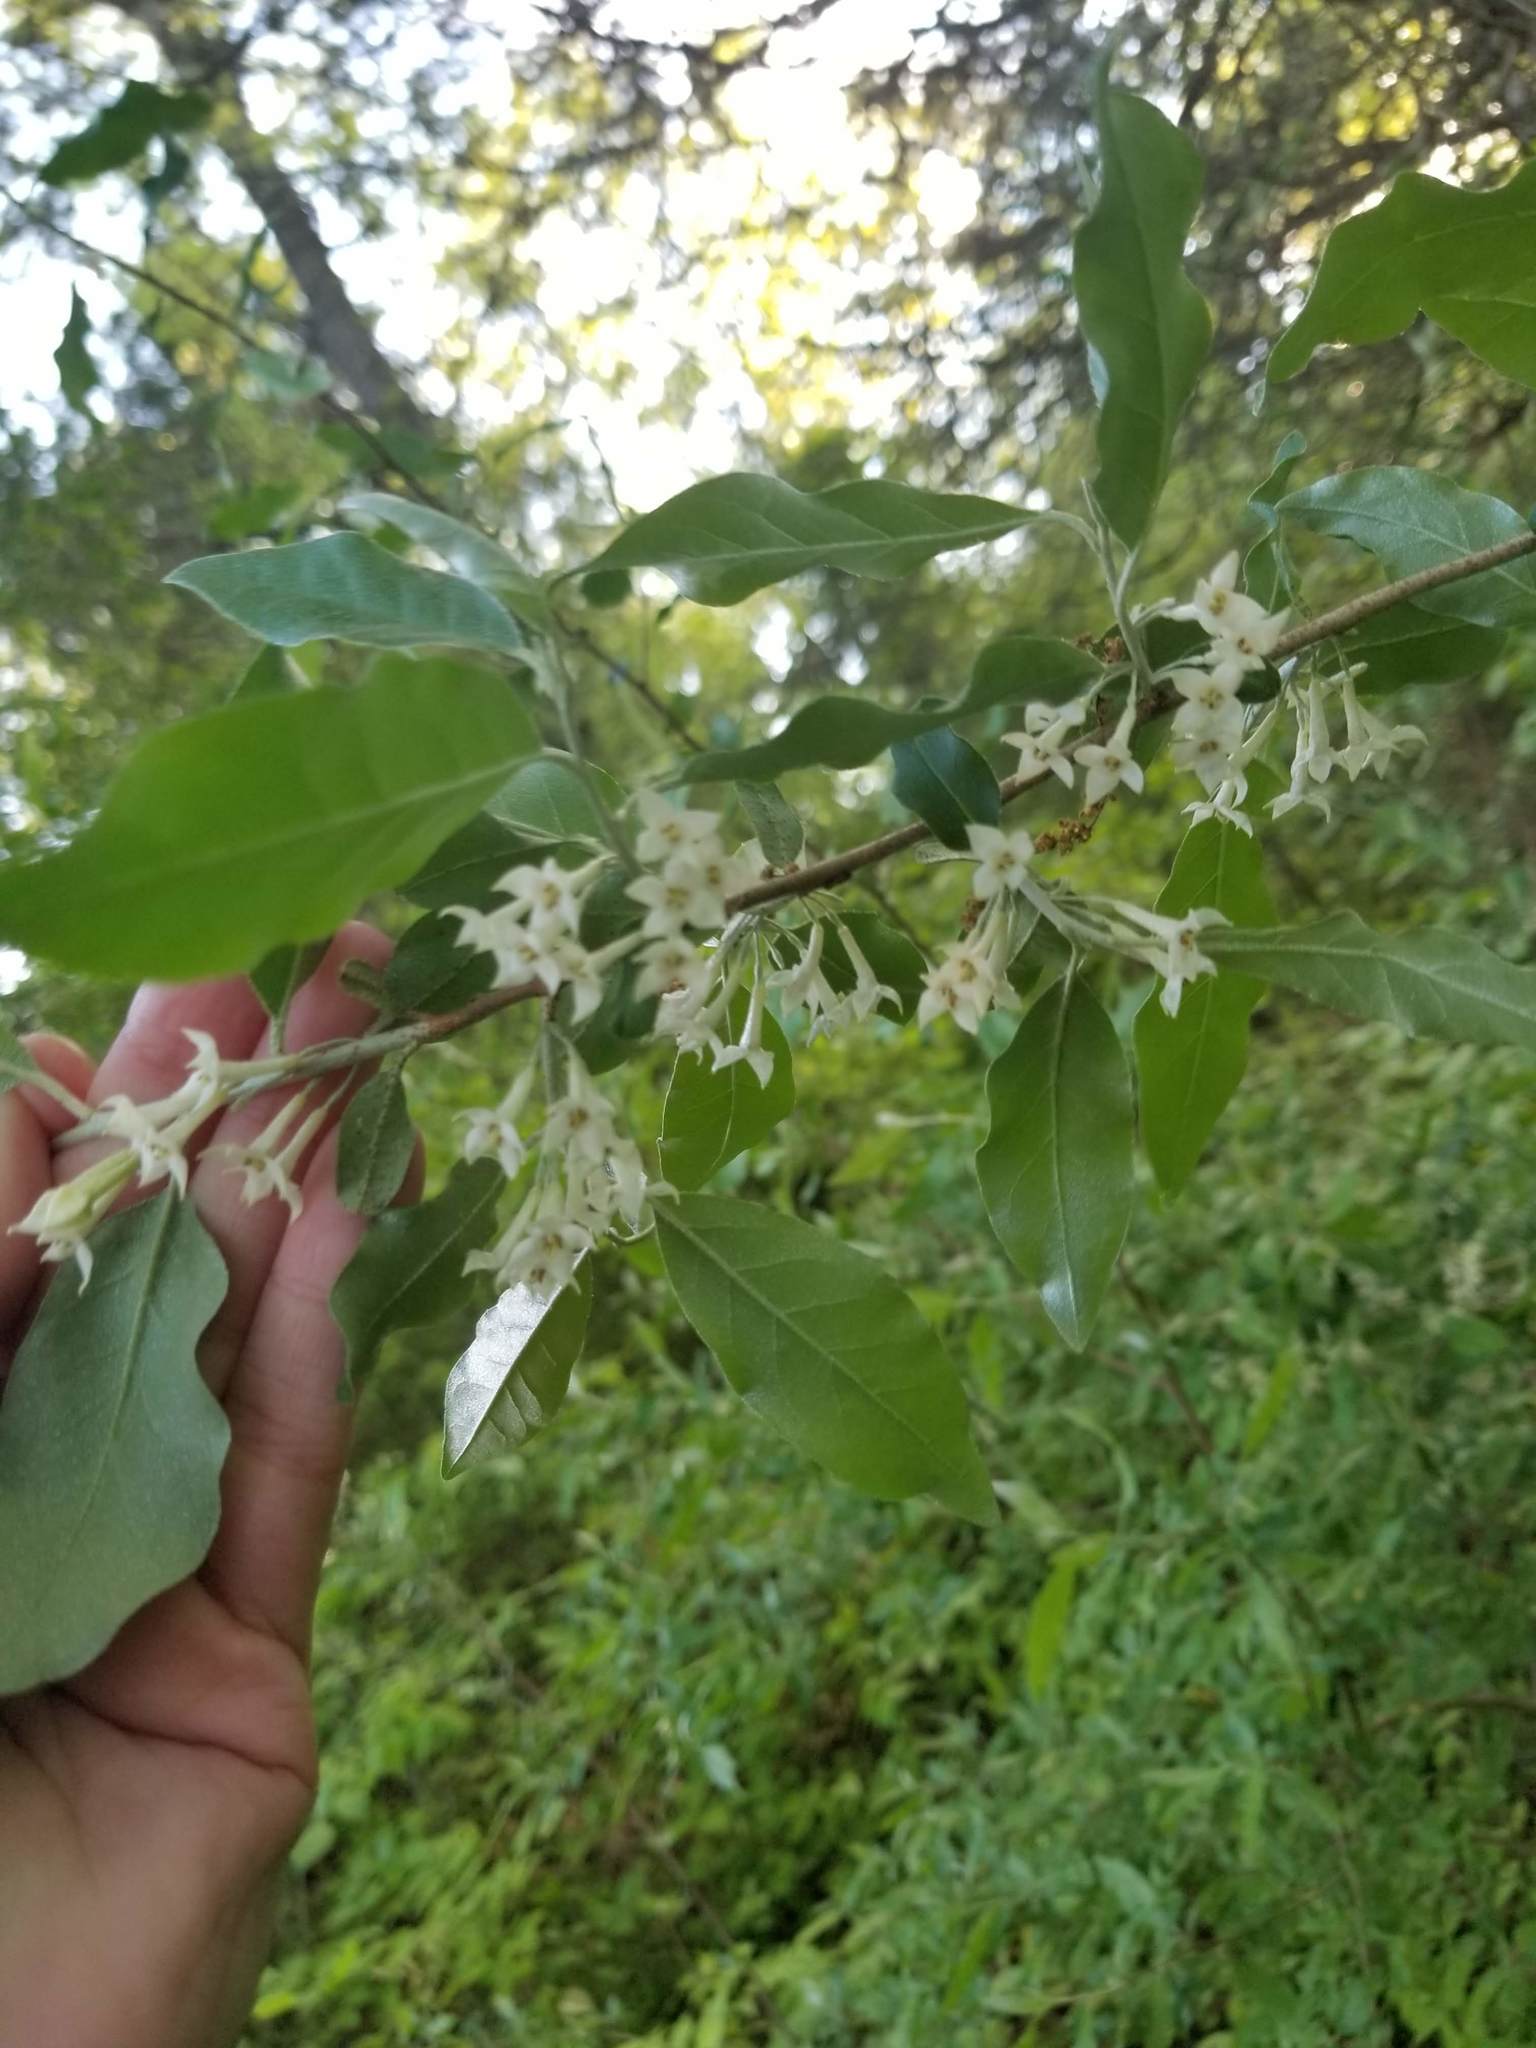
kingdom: Plantae
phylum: Tracheophyta
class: Magnoliopsida
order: Rosales
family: Elaeagnaceae
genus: Elaeagnus
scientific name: Elaeagnus umbellata
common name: Autumn olive
